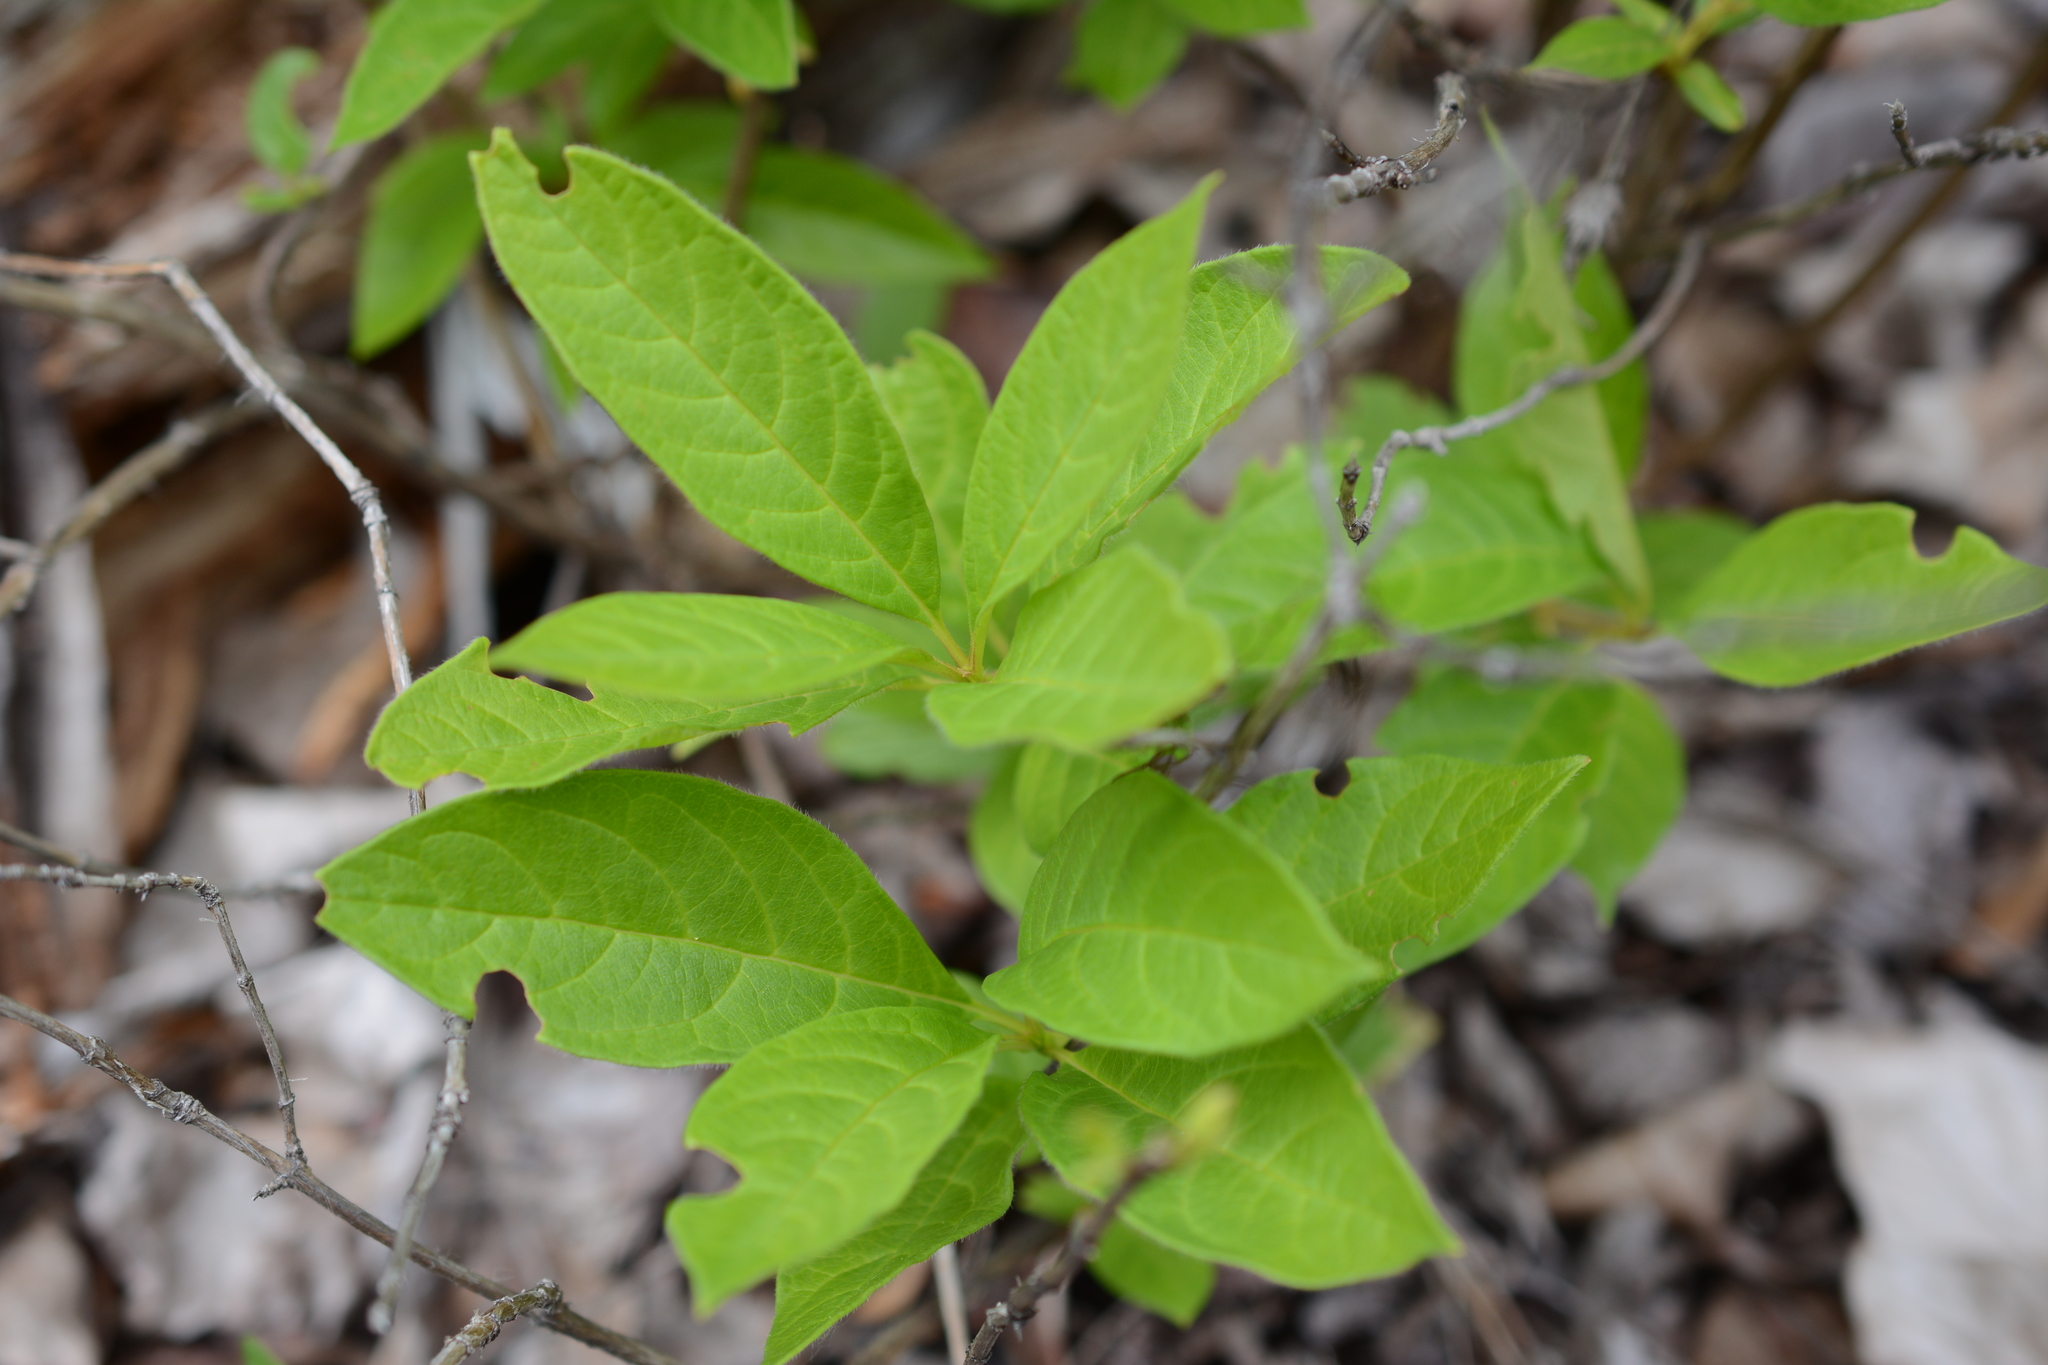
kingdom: Plantae
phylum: Tracheophyta
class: Magnoliopsida
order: Dipsacales
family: Caprifoliaceae
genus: Lonicera
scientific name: Lonicera involucrata
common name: Californian honeysuckle
